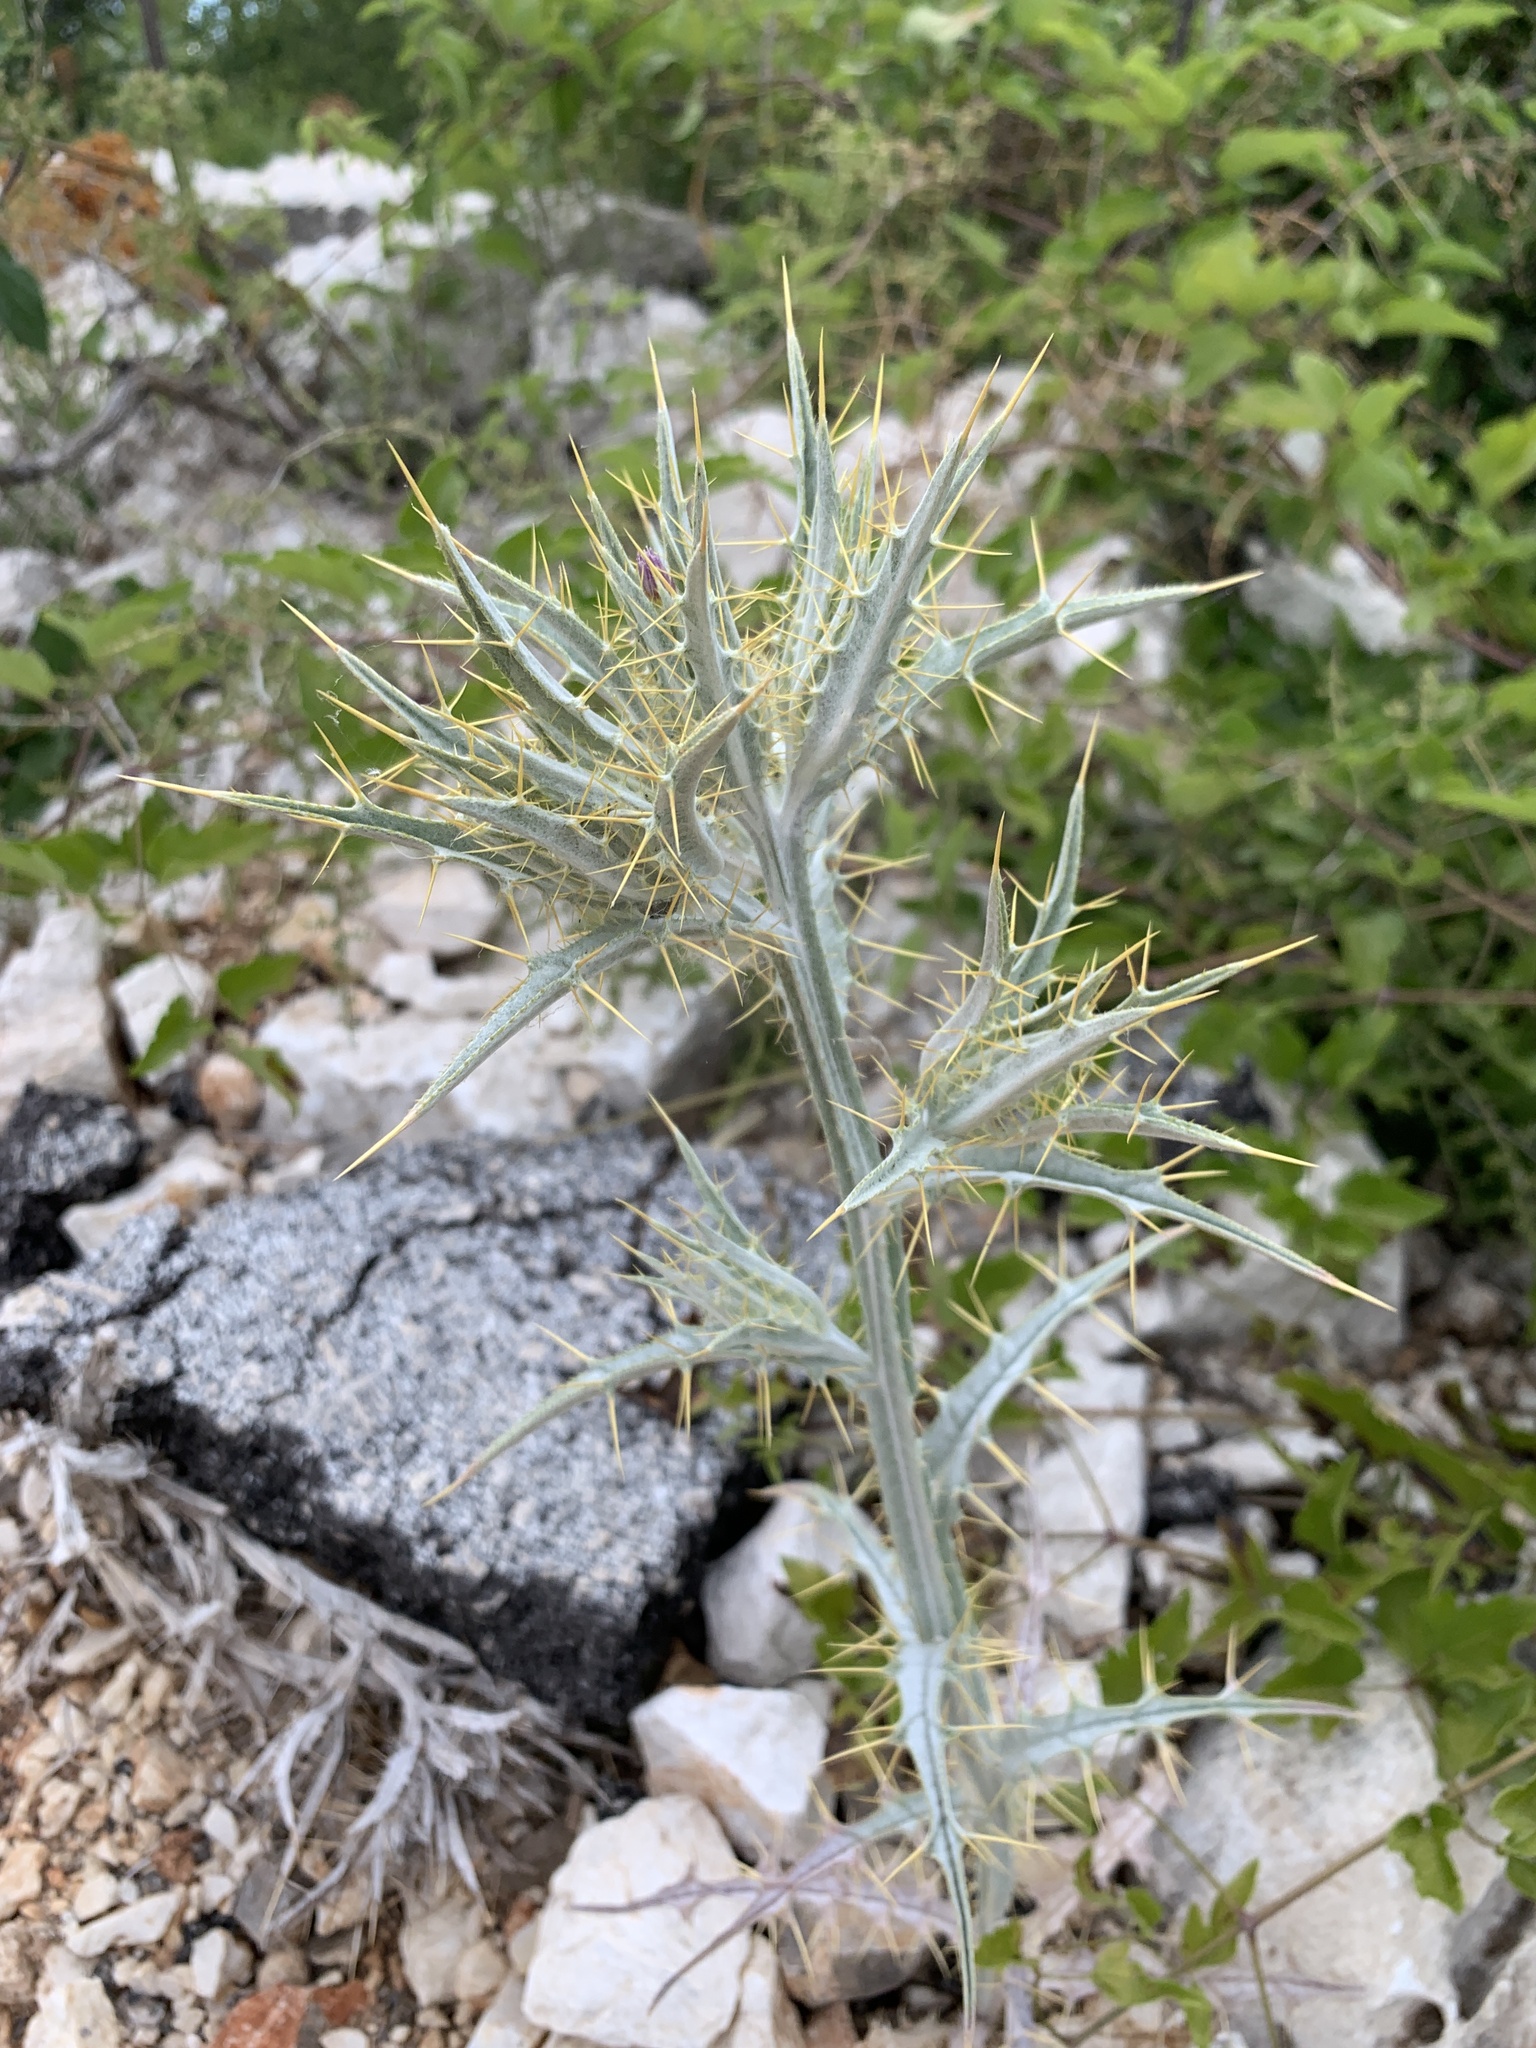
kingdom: Plantae
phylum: Tracheophyta
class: Magnoliopsida
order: Asterales
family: Asteraceae
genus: Picnomon
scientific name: Picnomon acarna
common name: Soldier thistle
